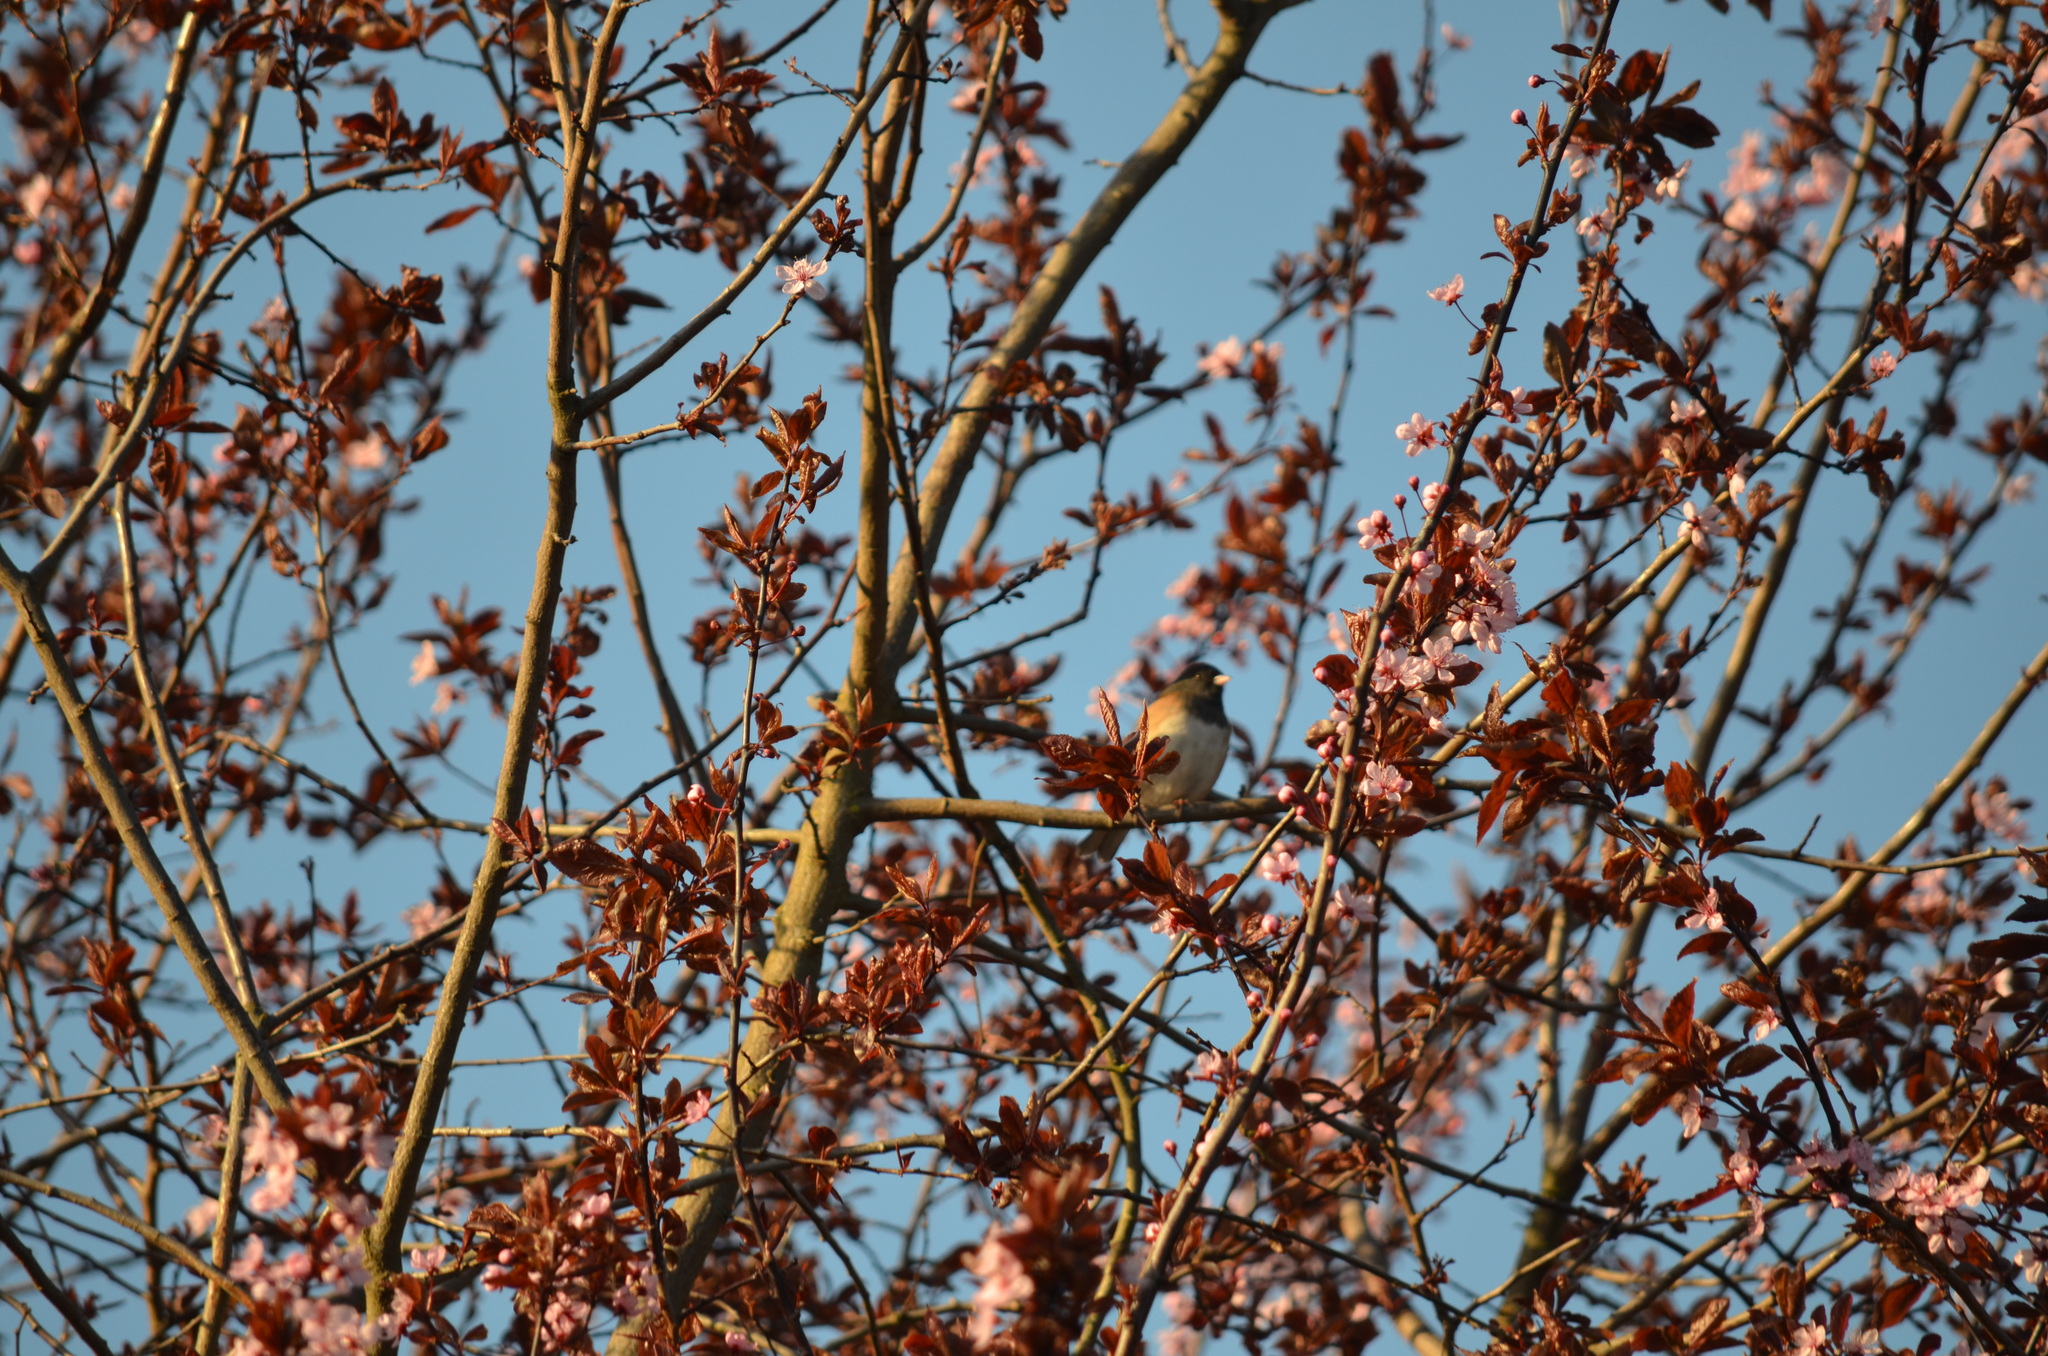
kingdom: Animalia
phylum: Chordata
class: Aves
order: Passeriformes
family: Passerellidae
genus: Junco
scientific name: Junco hyemalis
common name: Dark-eyed junco
